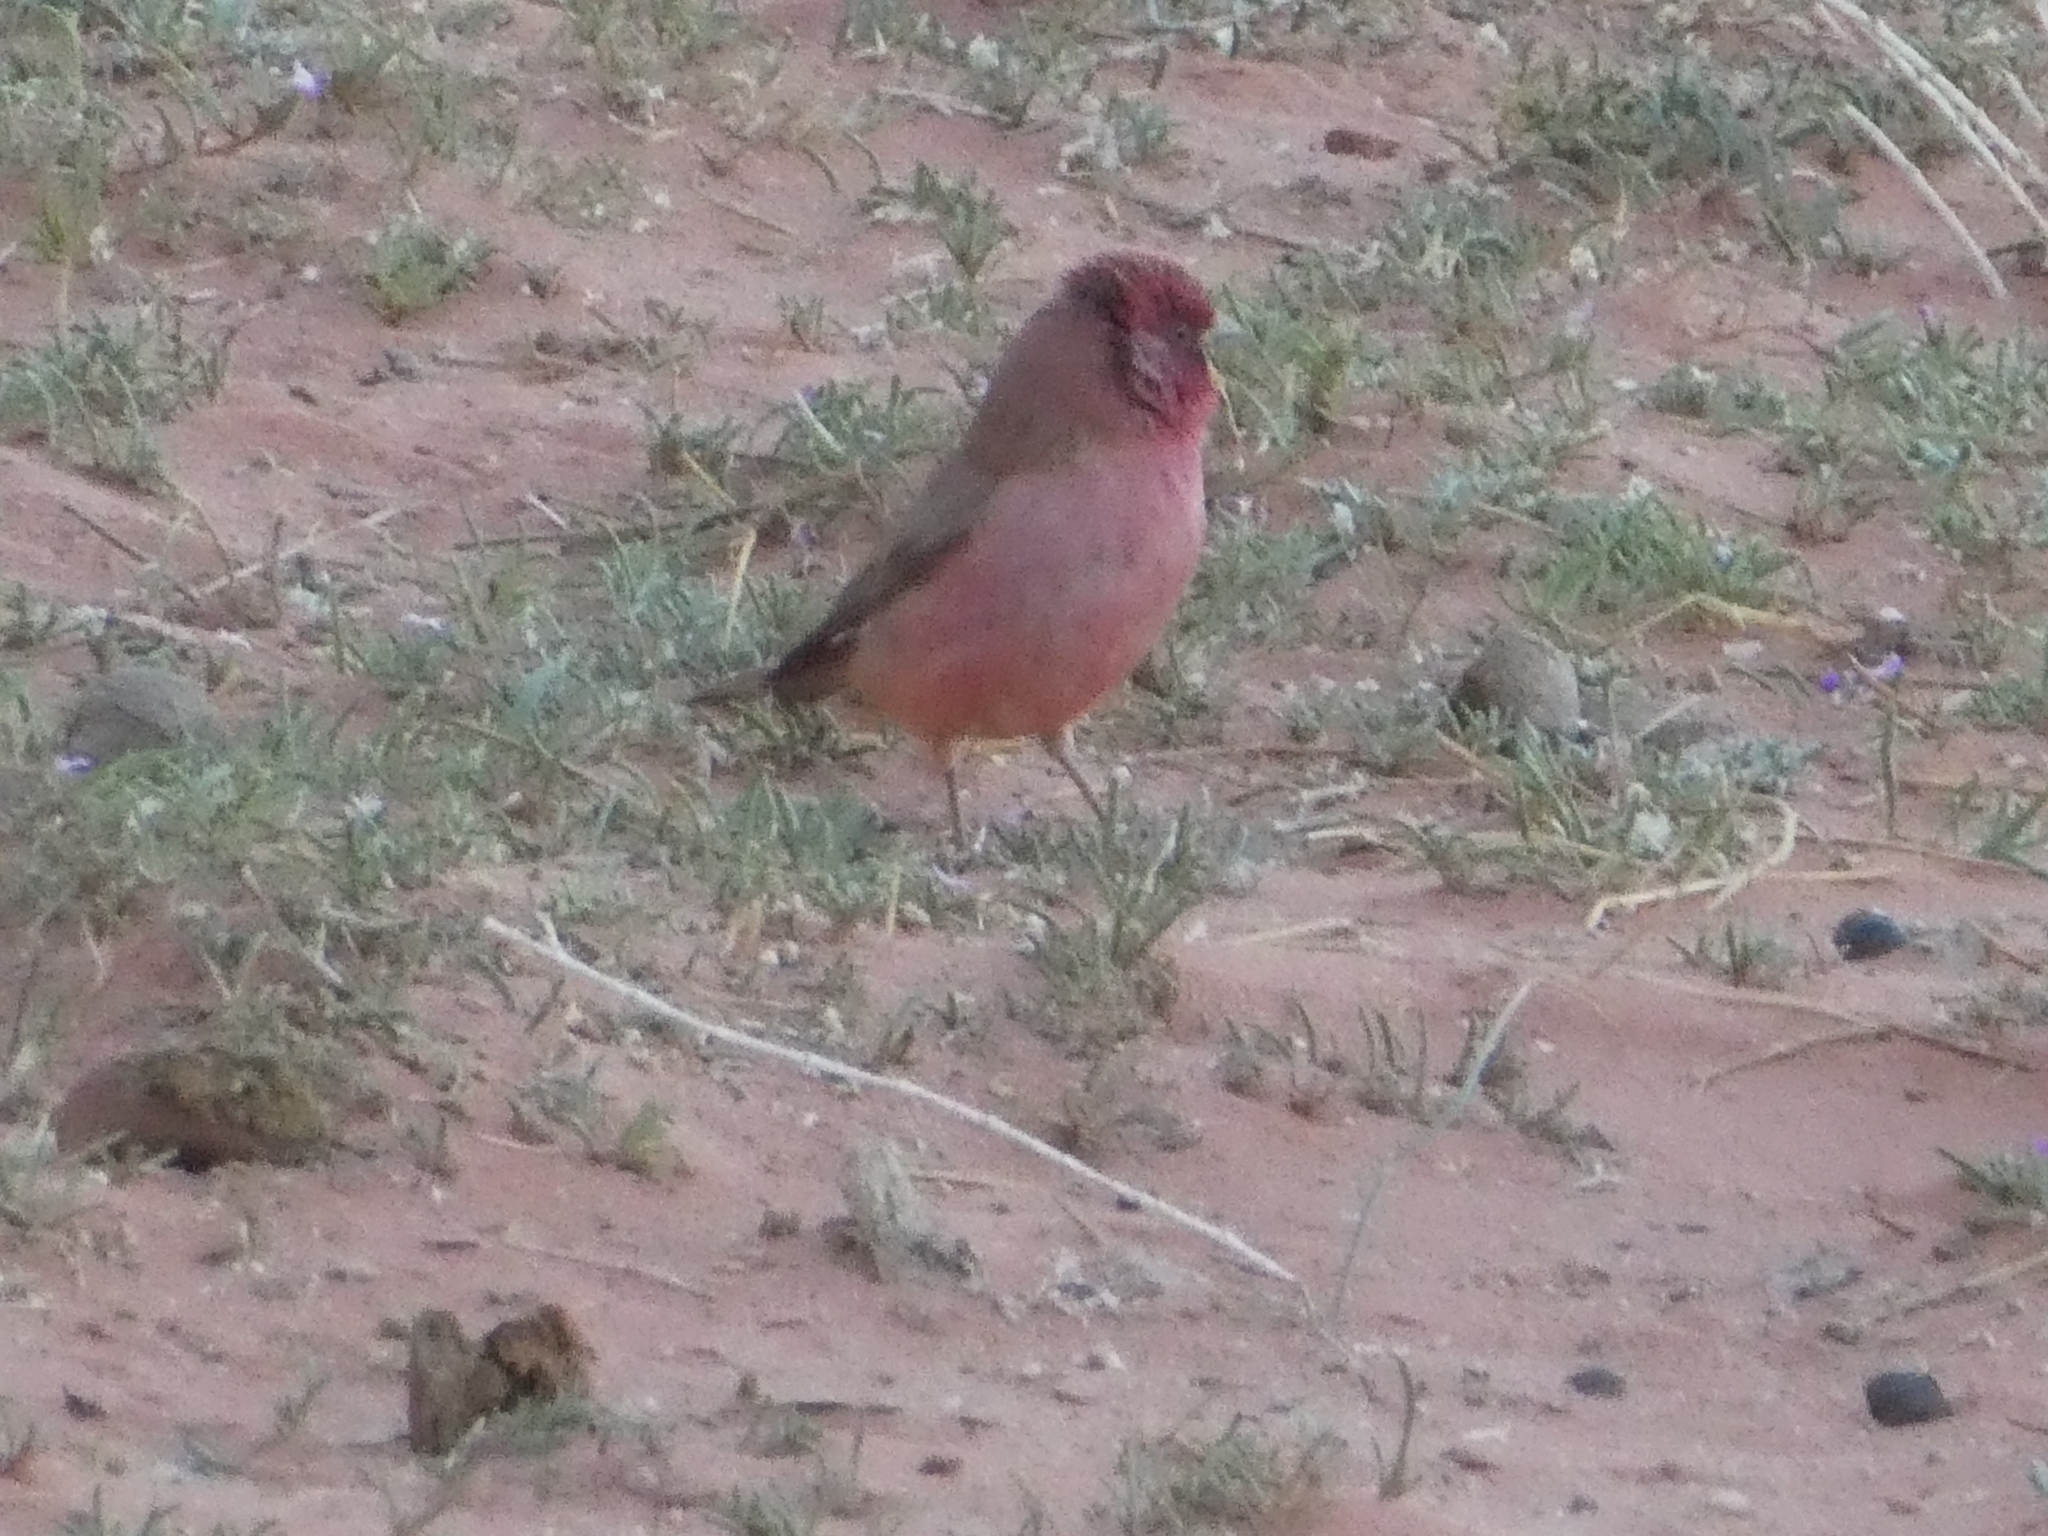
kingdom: Animalia
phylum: Chordata
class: Aves
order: Passeriformes
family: Fringillidae
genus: Carpodacus
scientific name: Carpodacus synoicus
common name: Sinai rosefinch
